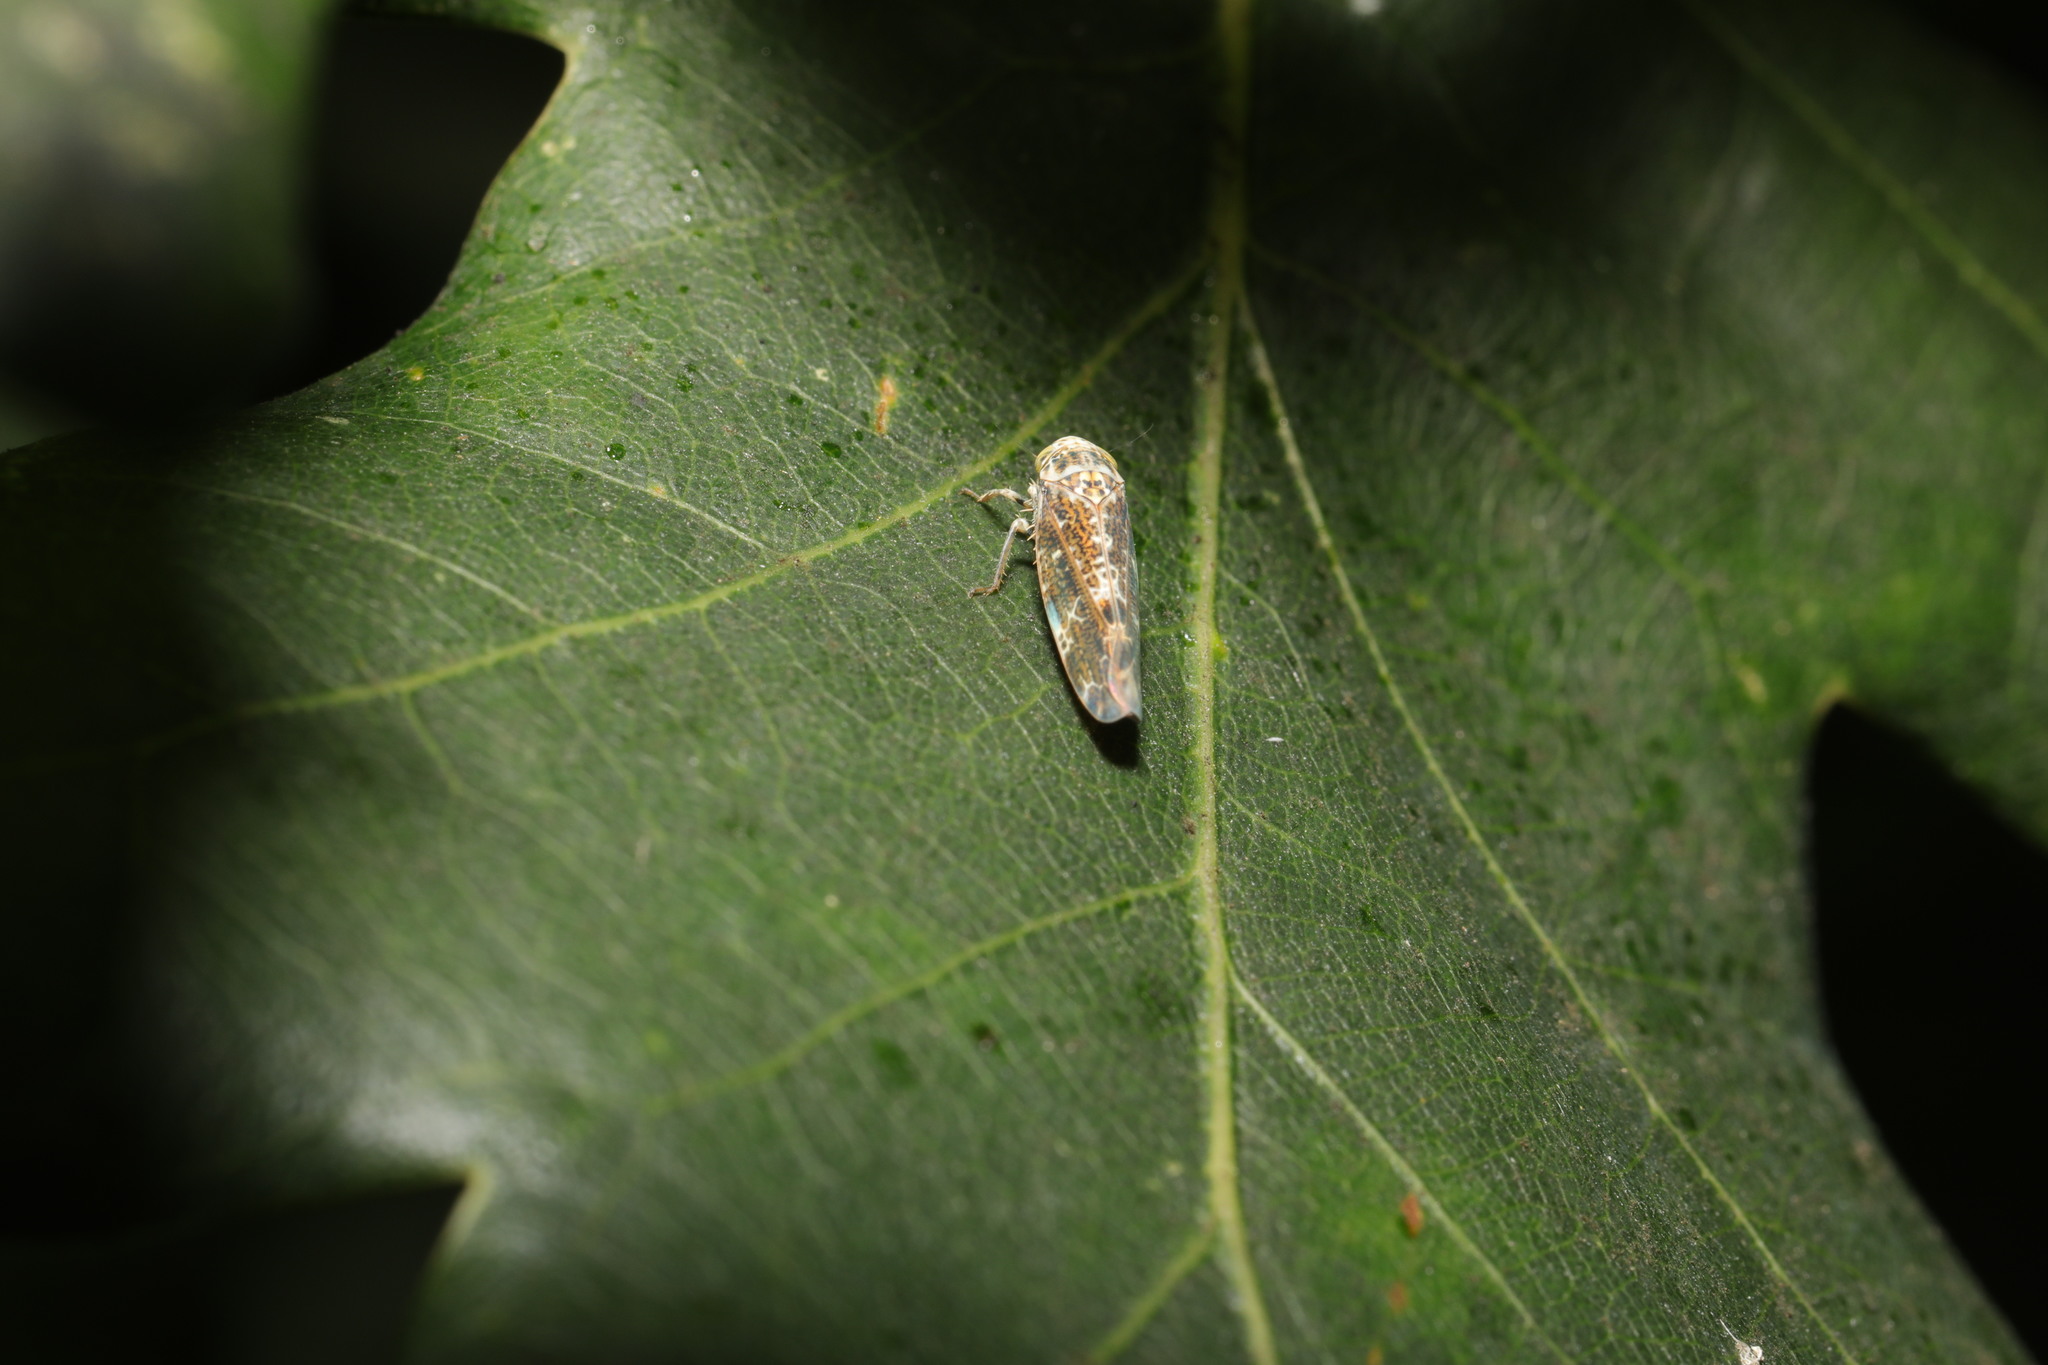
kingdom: Animalia
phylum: Arthropoda
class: Insecta
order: Hemiptera
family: Cicadellidae
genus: Allygus
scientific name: Allygus mixtus
